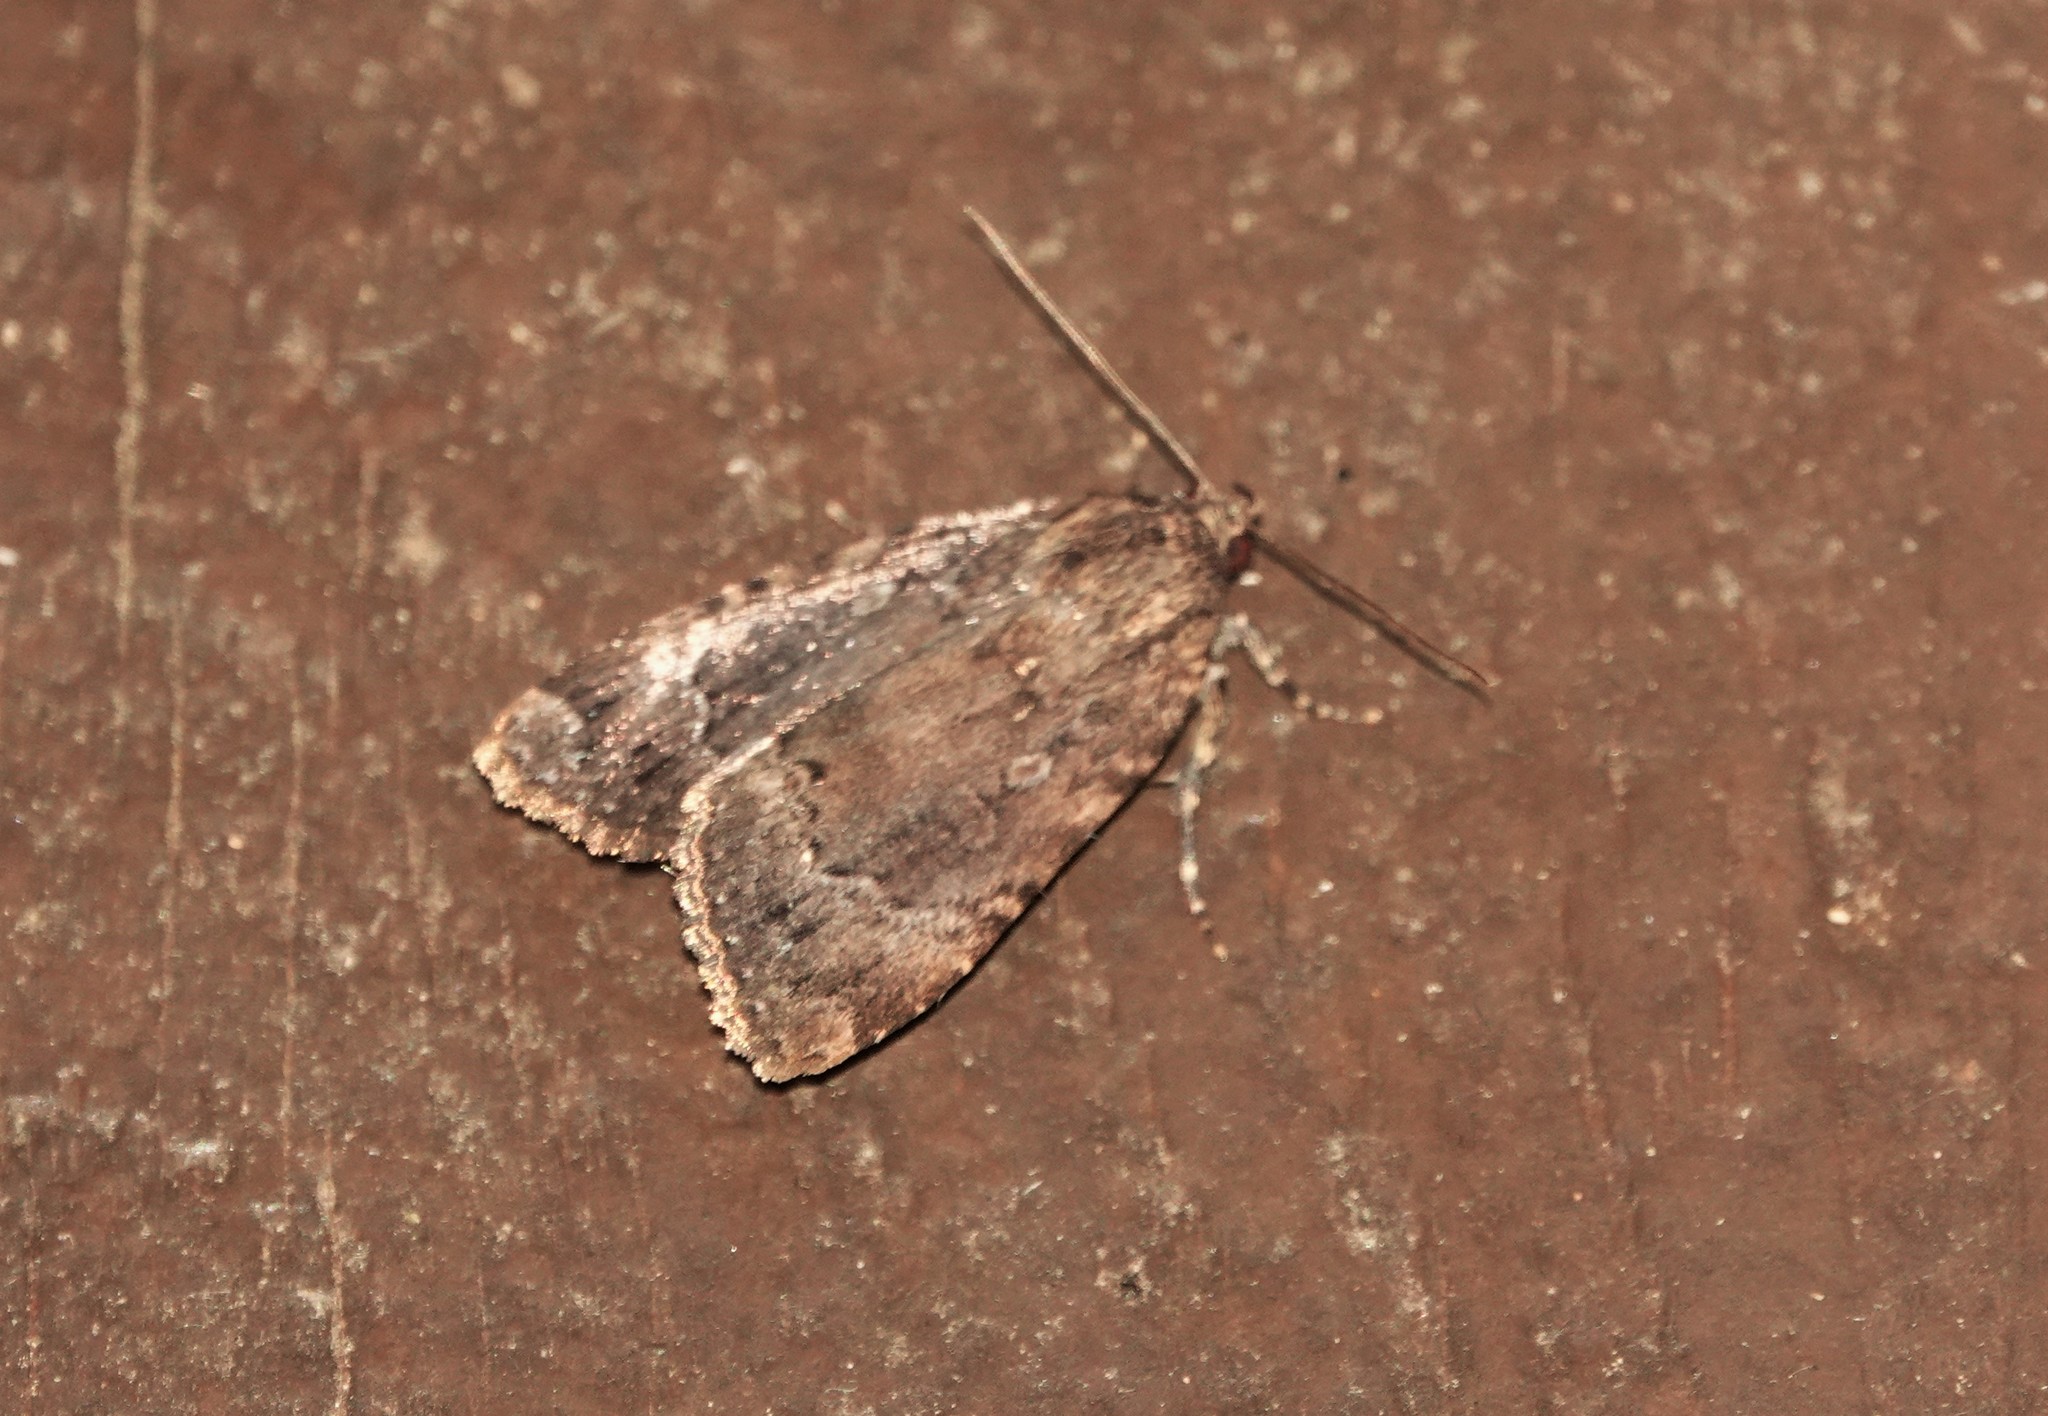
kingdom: Animalia
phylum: Arthropoda
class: Insecta
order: Lepidoptera
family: Noctuidae
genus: Amphipyra
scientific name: Amphipyra pyramidoides
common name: American copper underwing
